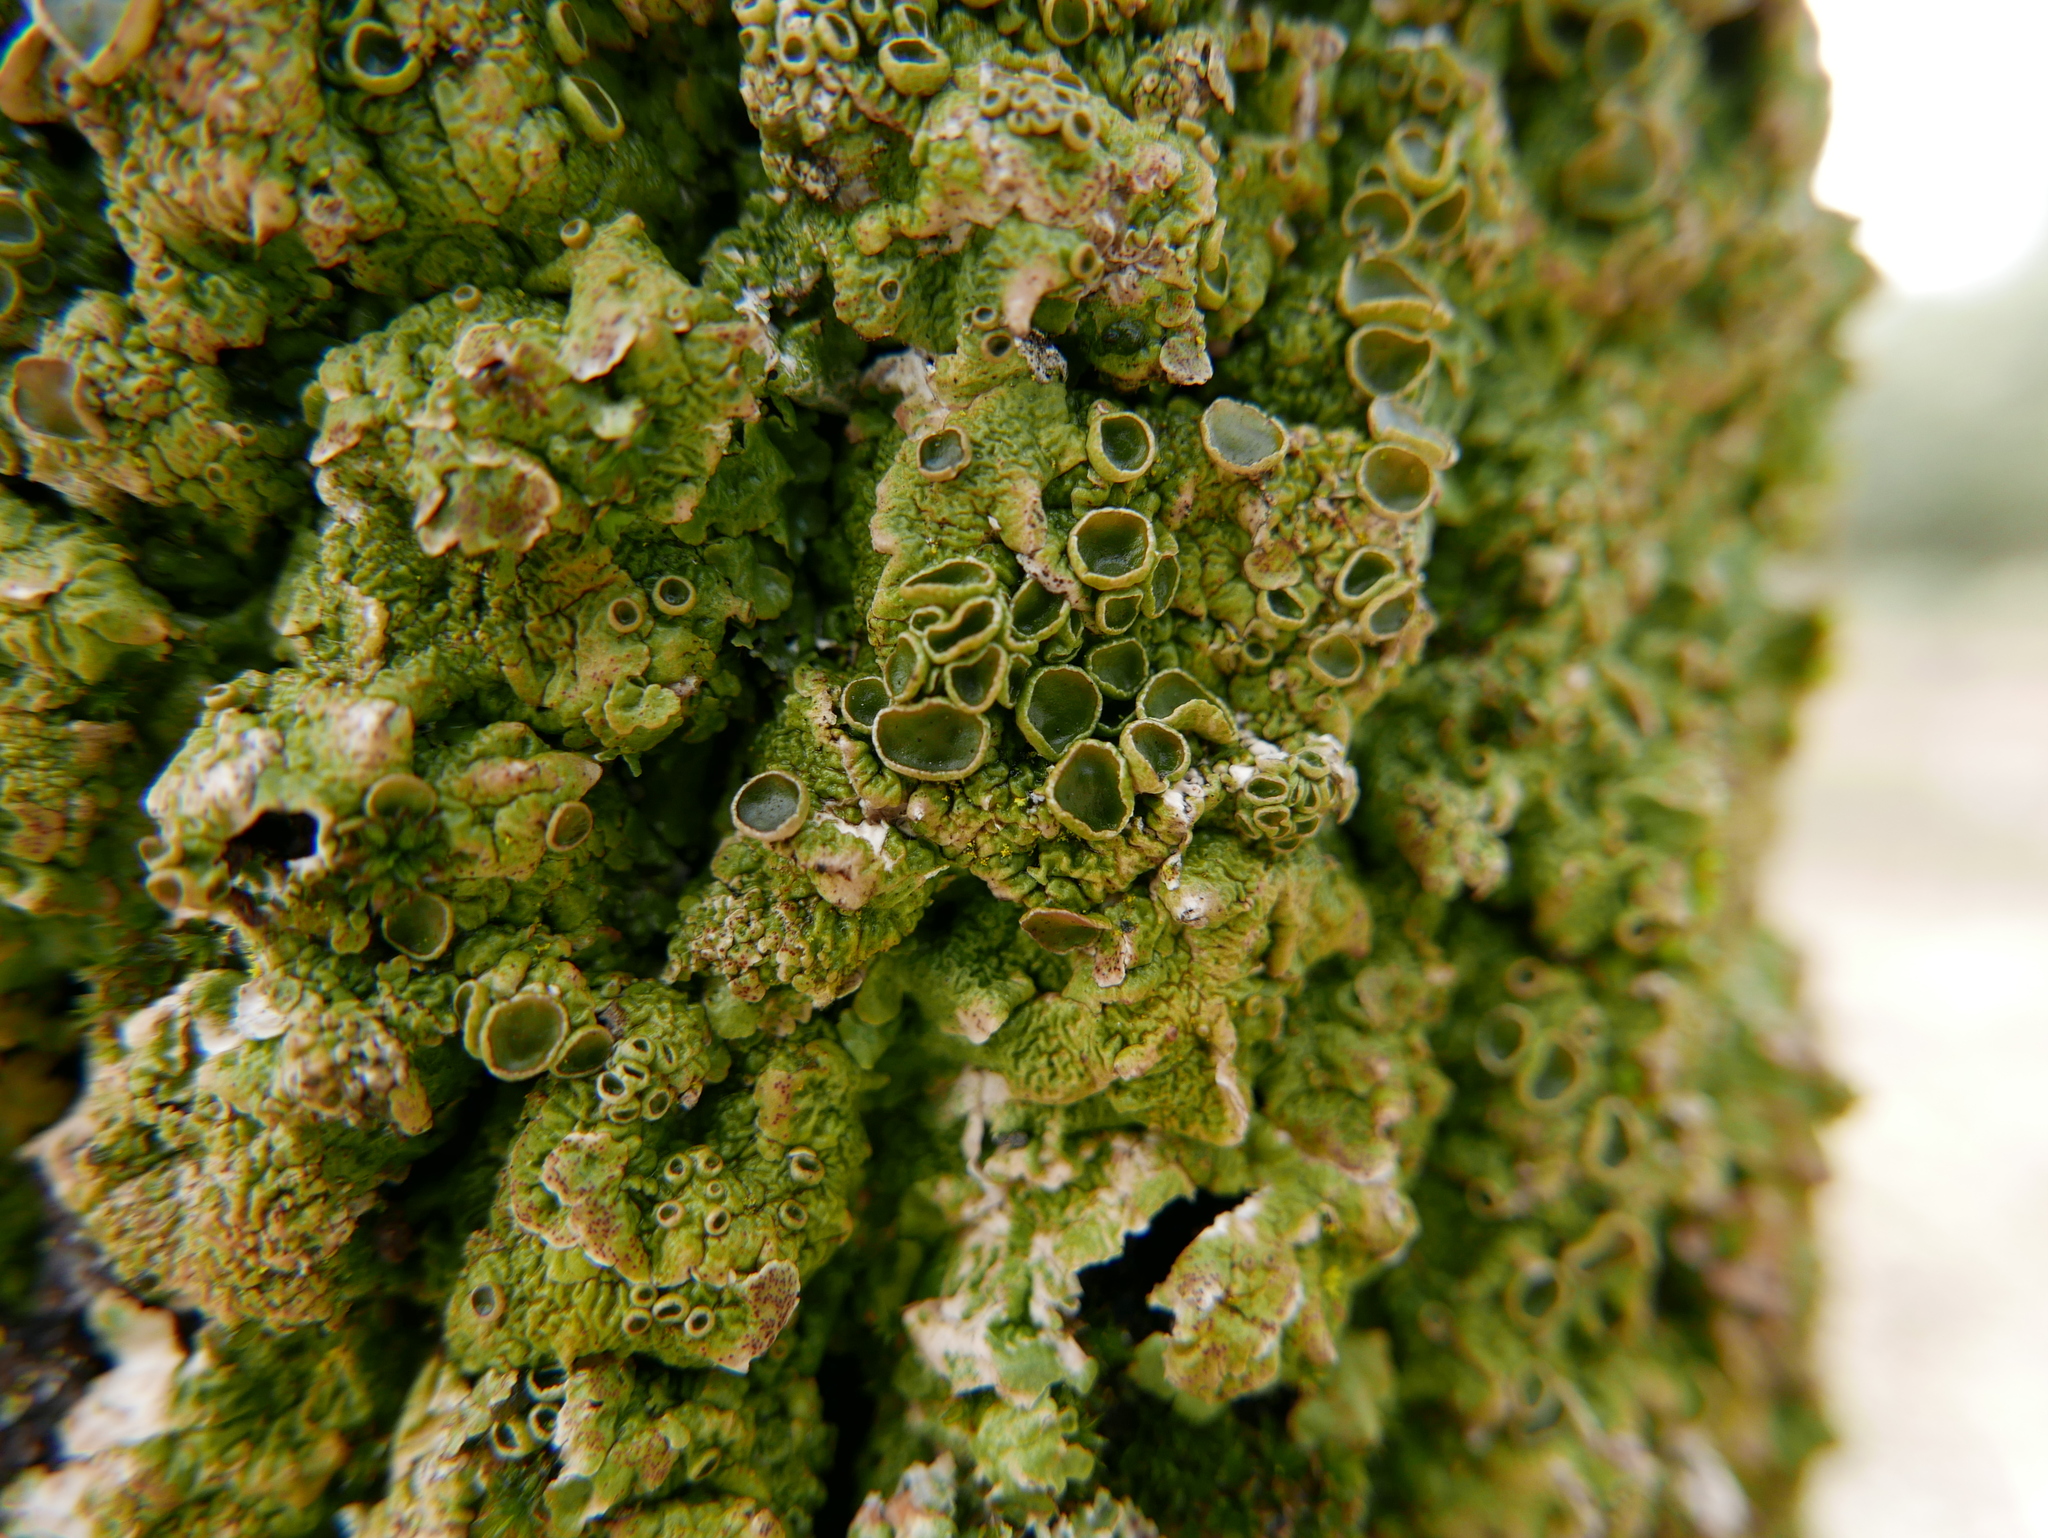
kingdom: Fungi
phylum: Ascomycota
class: Lecanoromycetes
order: Lecanorales
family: Parmeliaceae
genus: Melanelixia
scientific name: Melanelixia glabra
